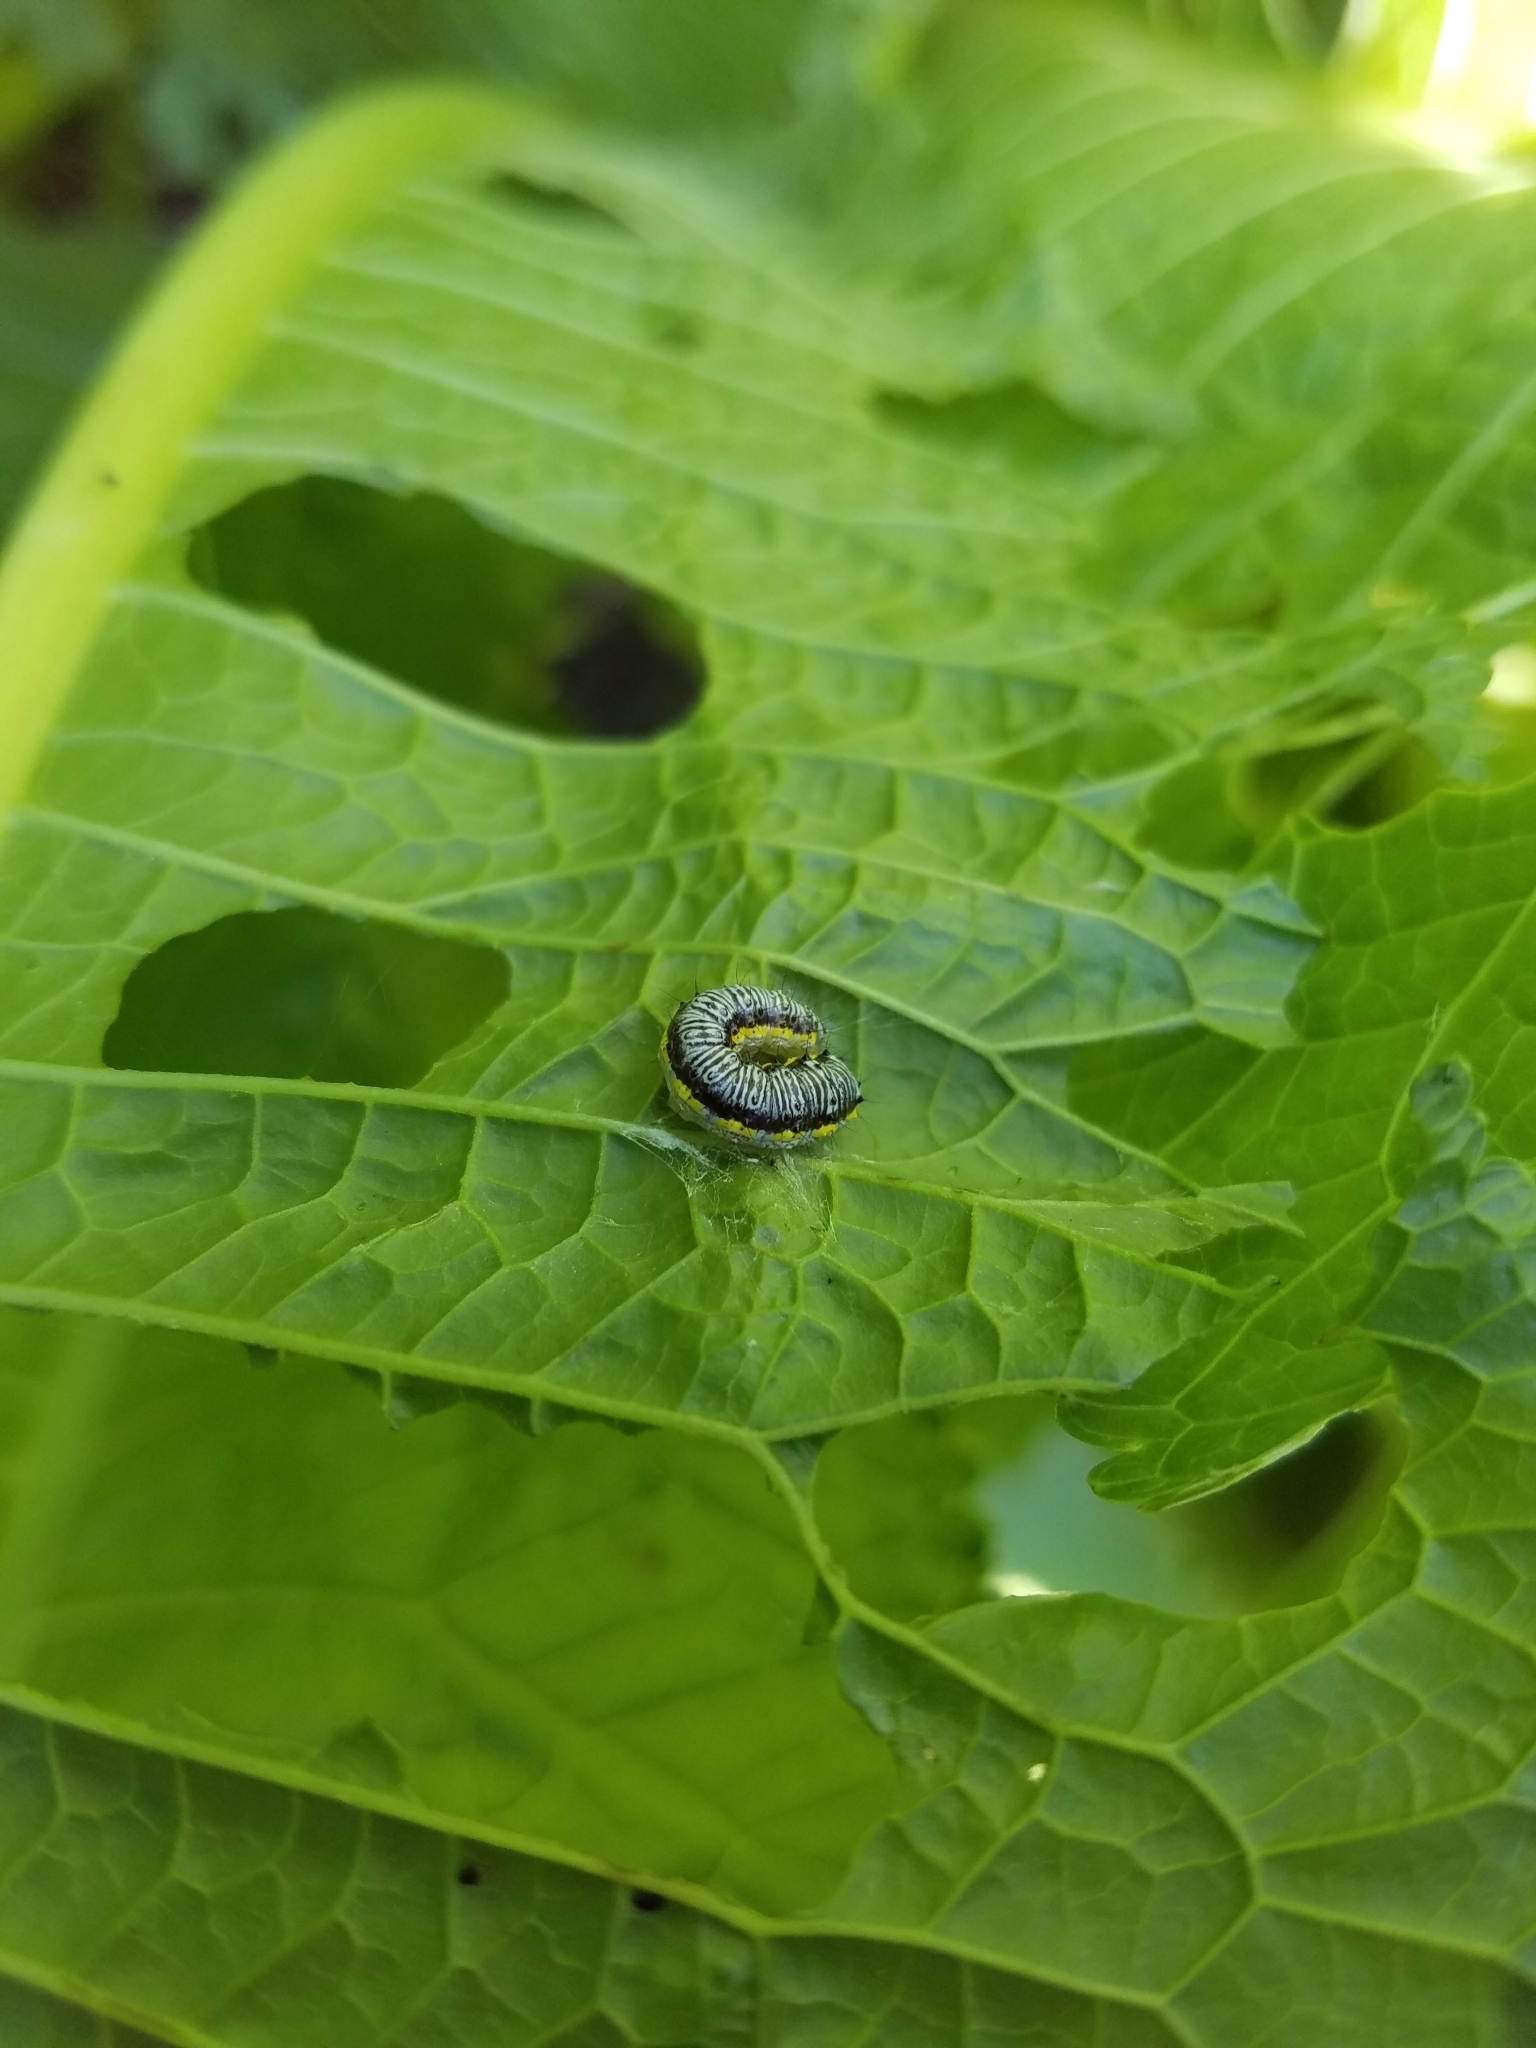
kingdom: Animalia
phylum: Arthropoda
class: Insecta
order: Lepidoptera
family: Crambidae
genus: Evergestis
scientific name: Evergestis rimosalis
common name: Cross-striped cabbageworm moth
